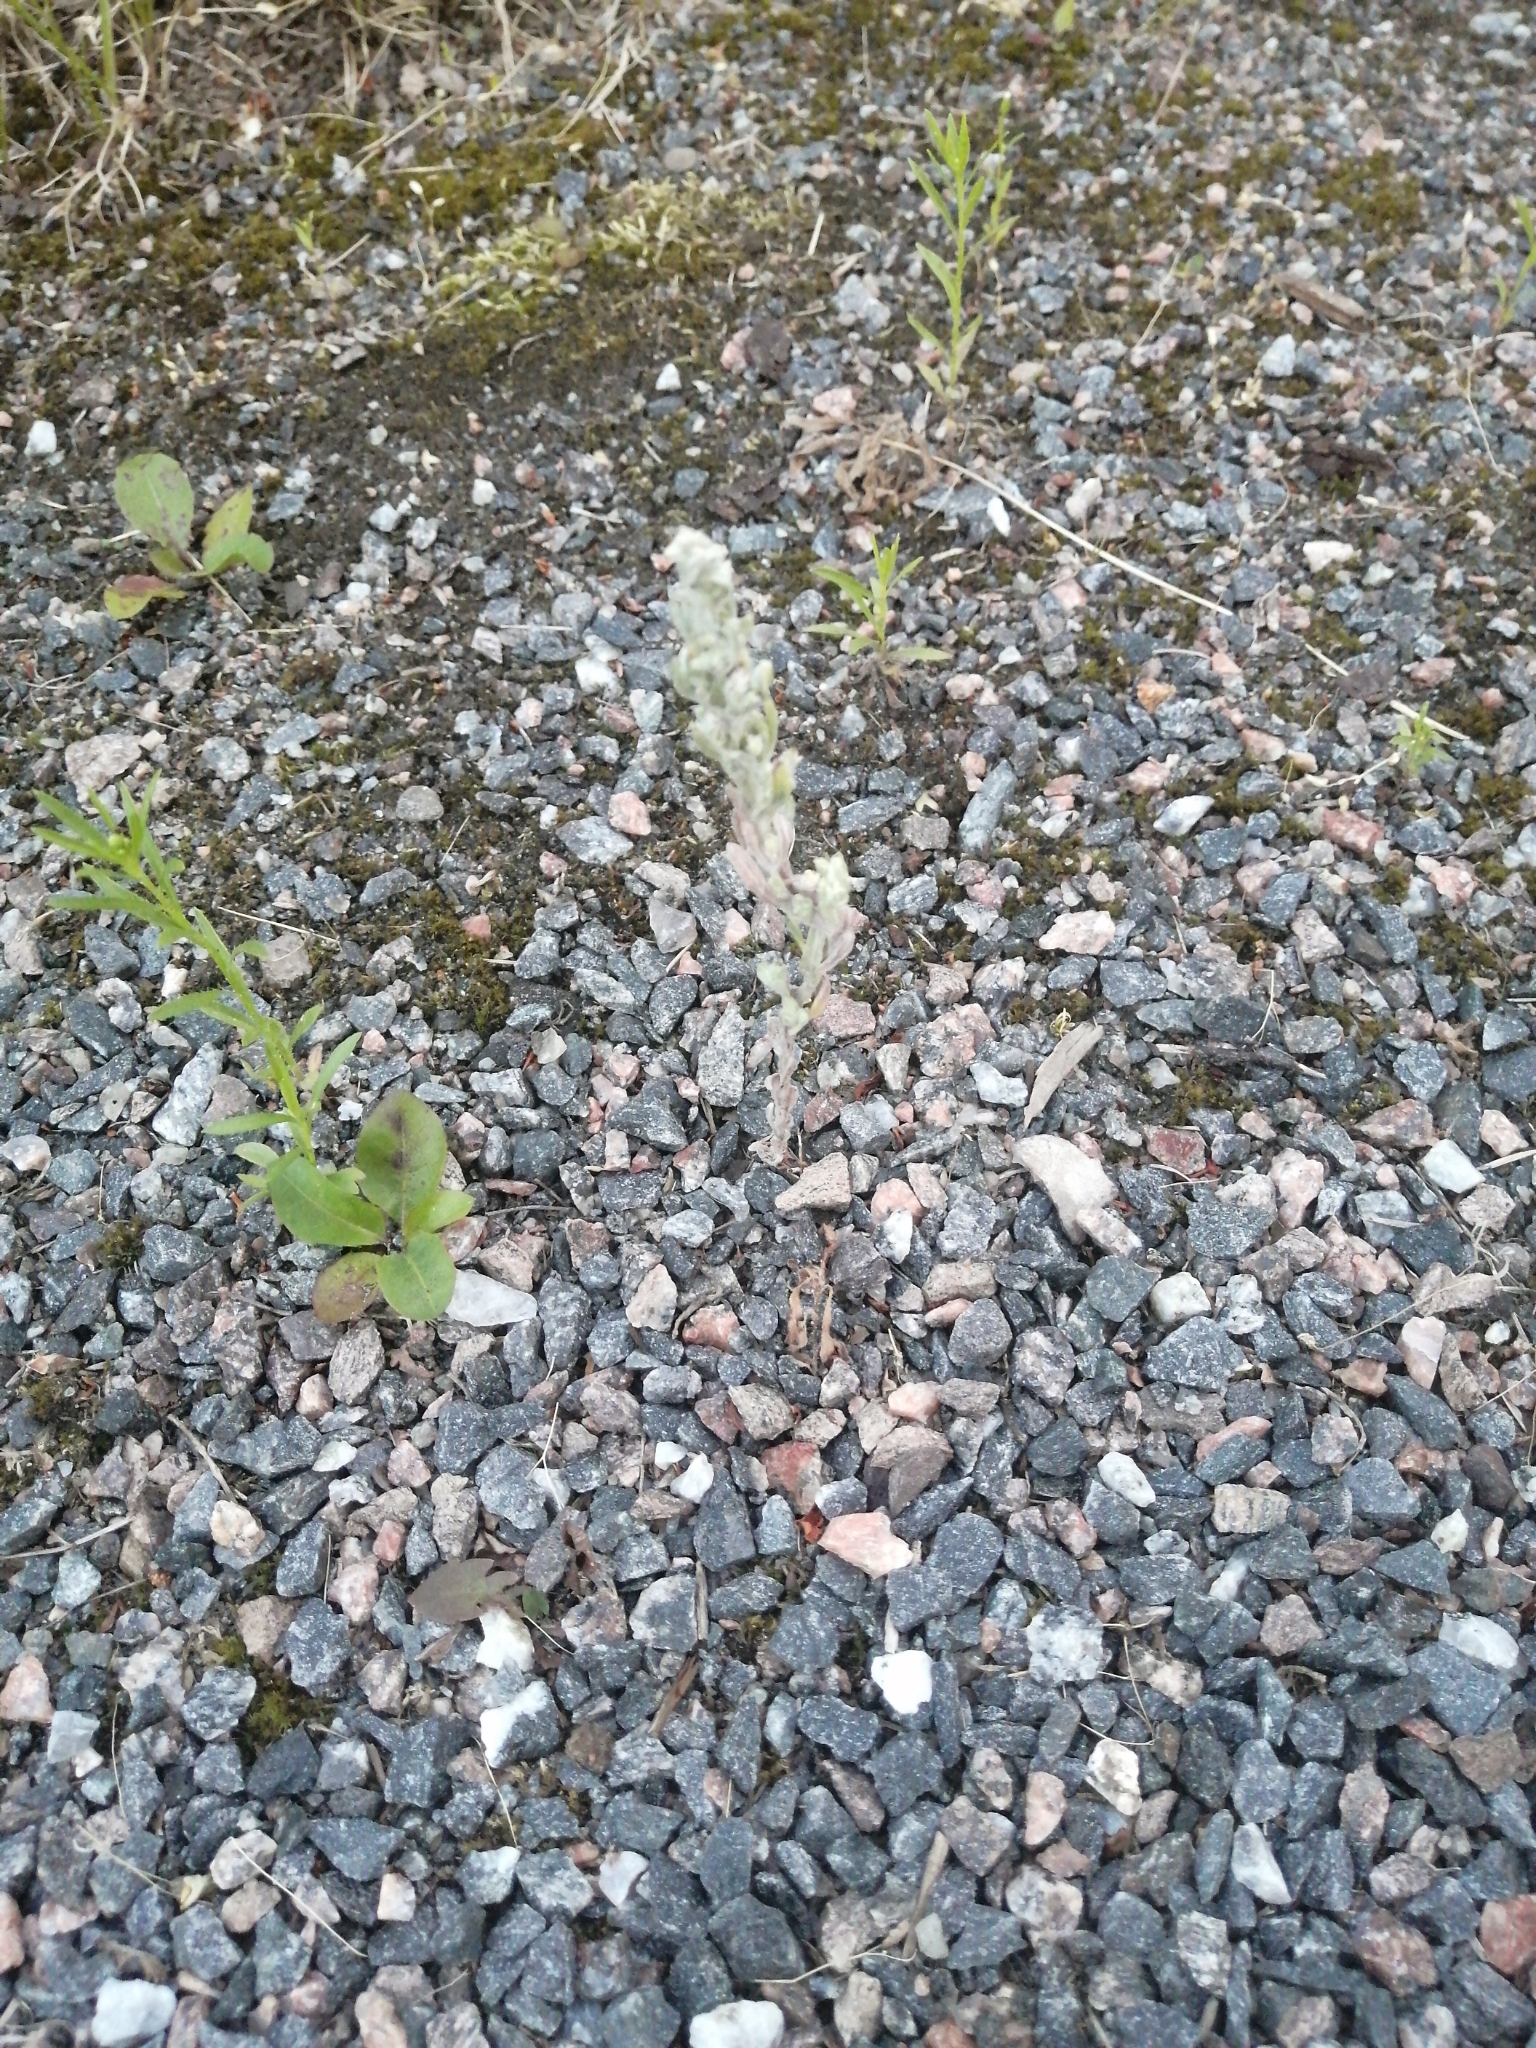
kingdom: Plantae
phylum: Tracheophyta
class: Magnoliopsida
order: Asterales
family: Asteraceae
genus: Filago
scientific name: Filago arvensis
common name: Field cudweed
